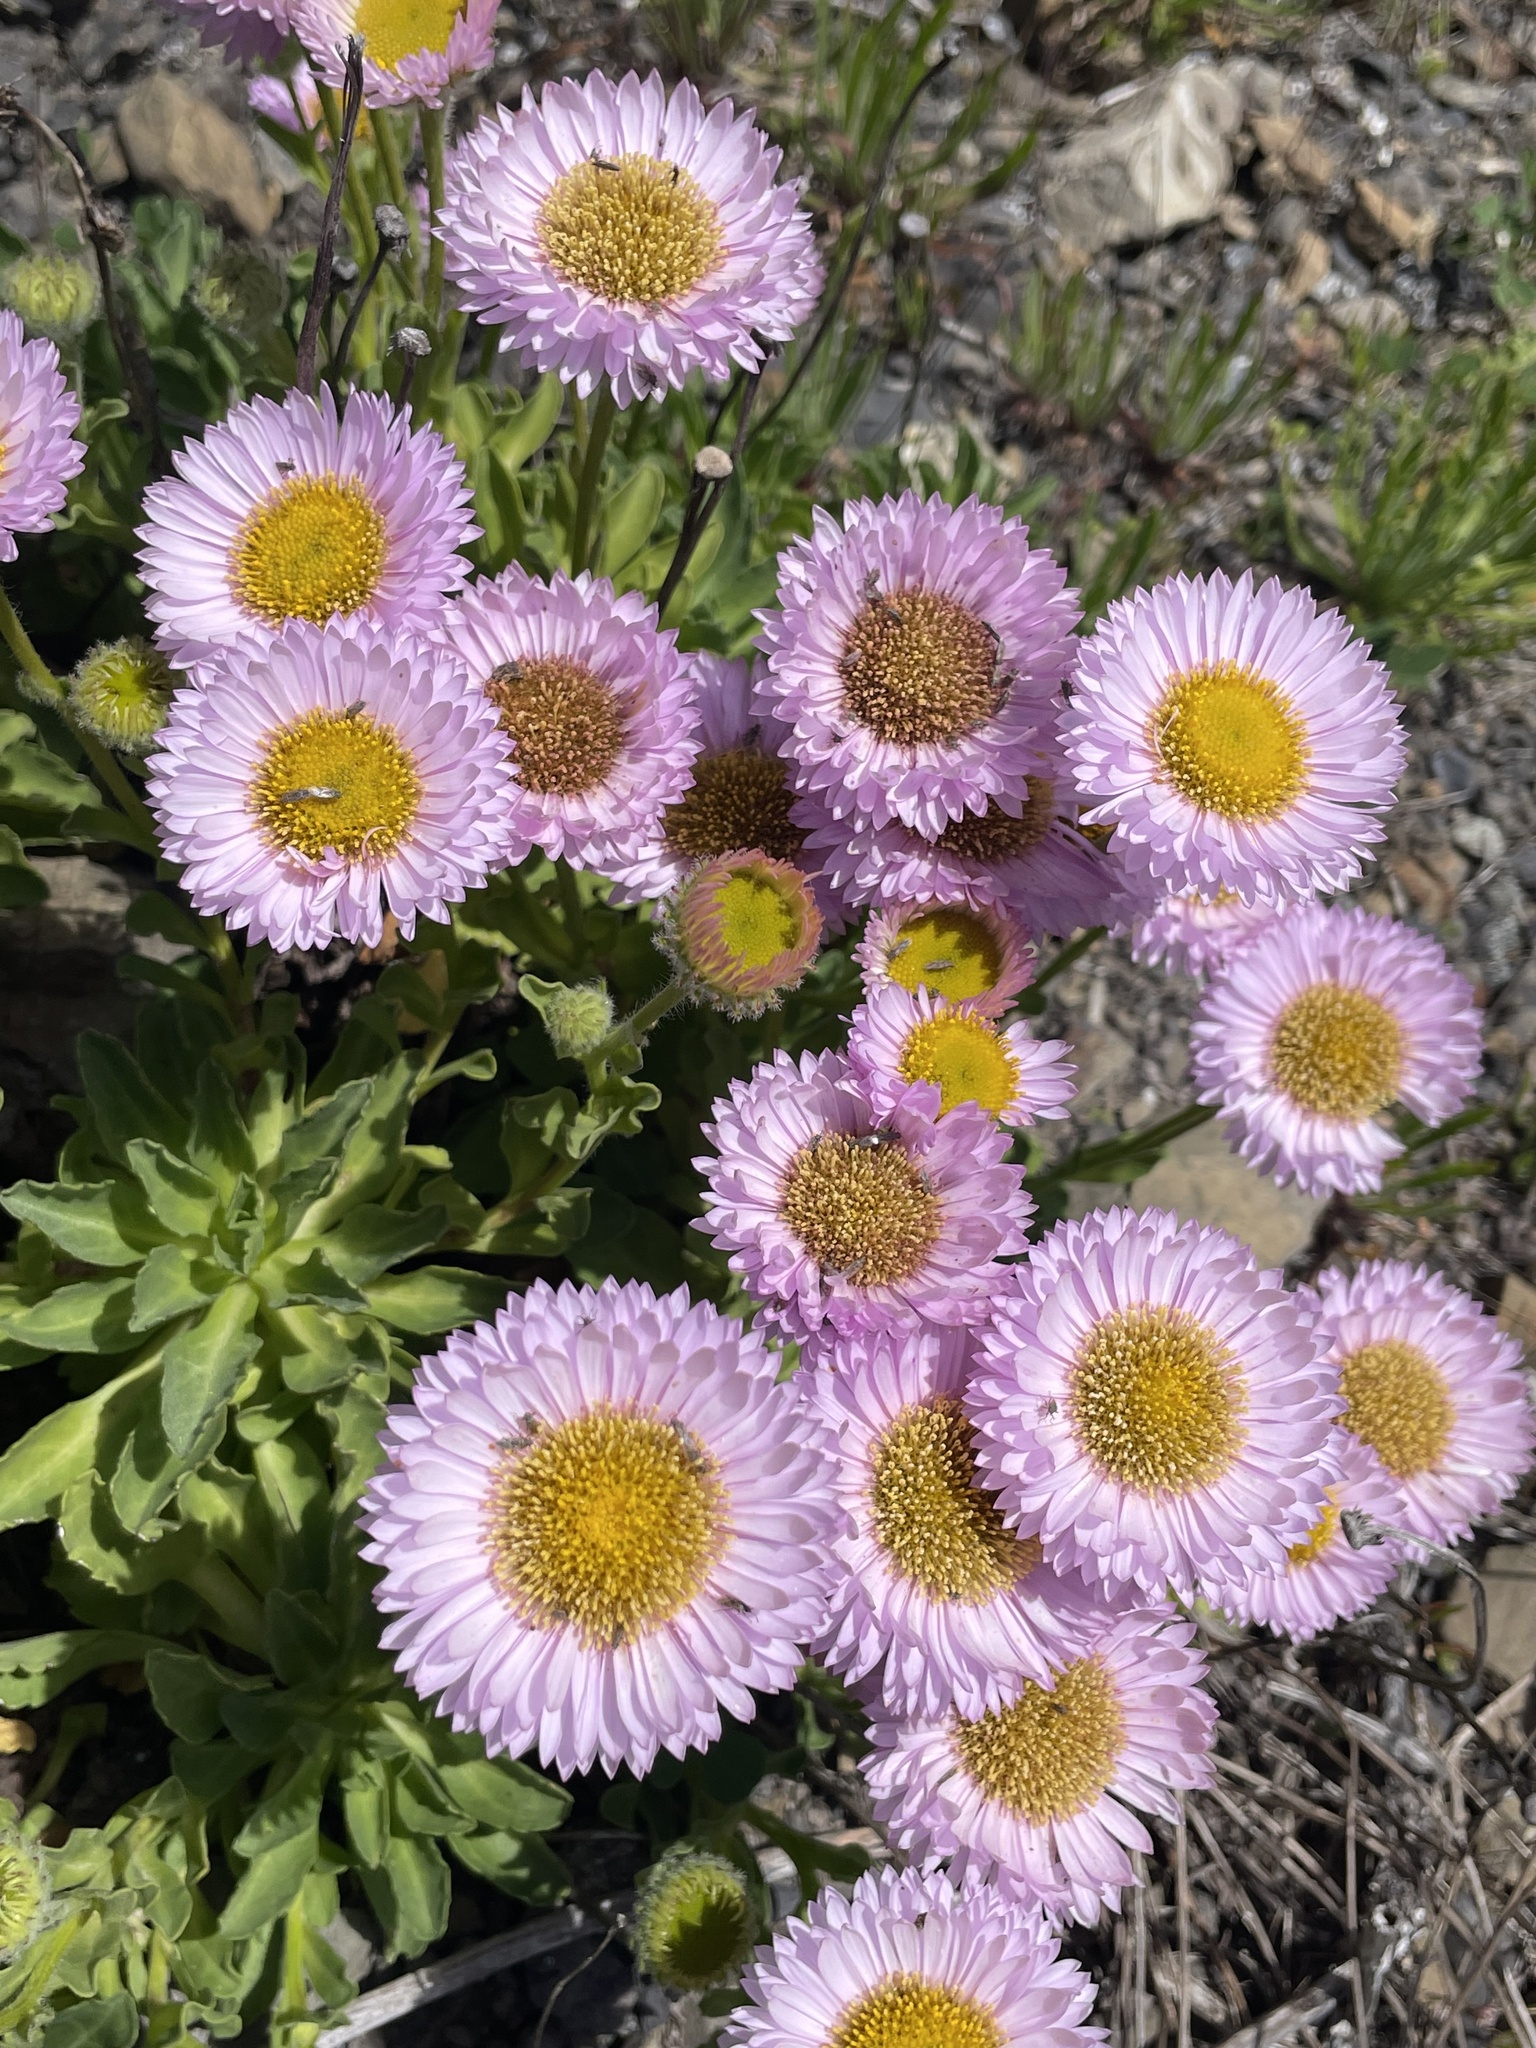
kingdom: Plantae
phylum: Tracheophyta
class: Magnoliopsida
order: Asterales
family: Asteraceae
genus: Erigeron
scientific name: Erigeron glaucus
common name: Seaside daisy
